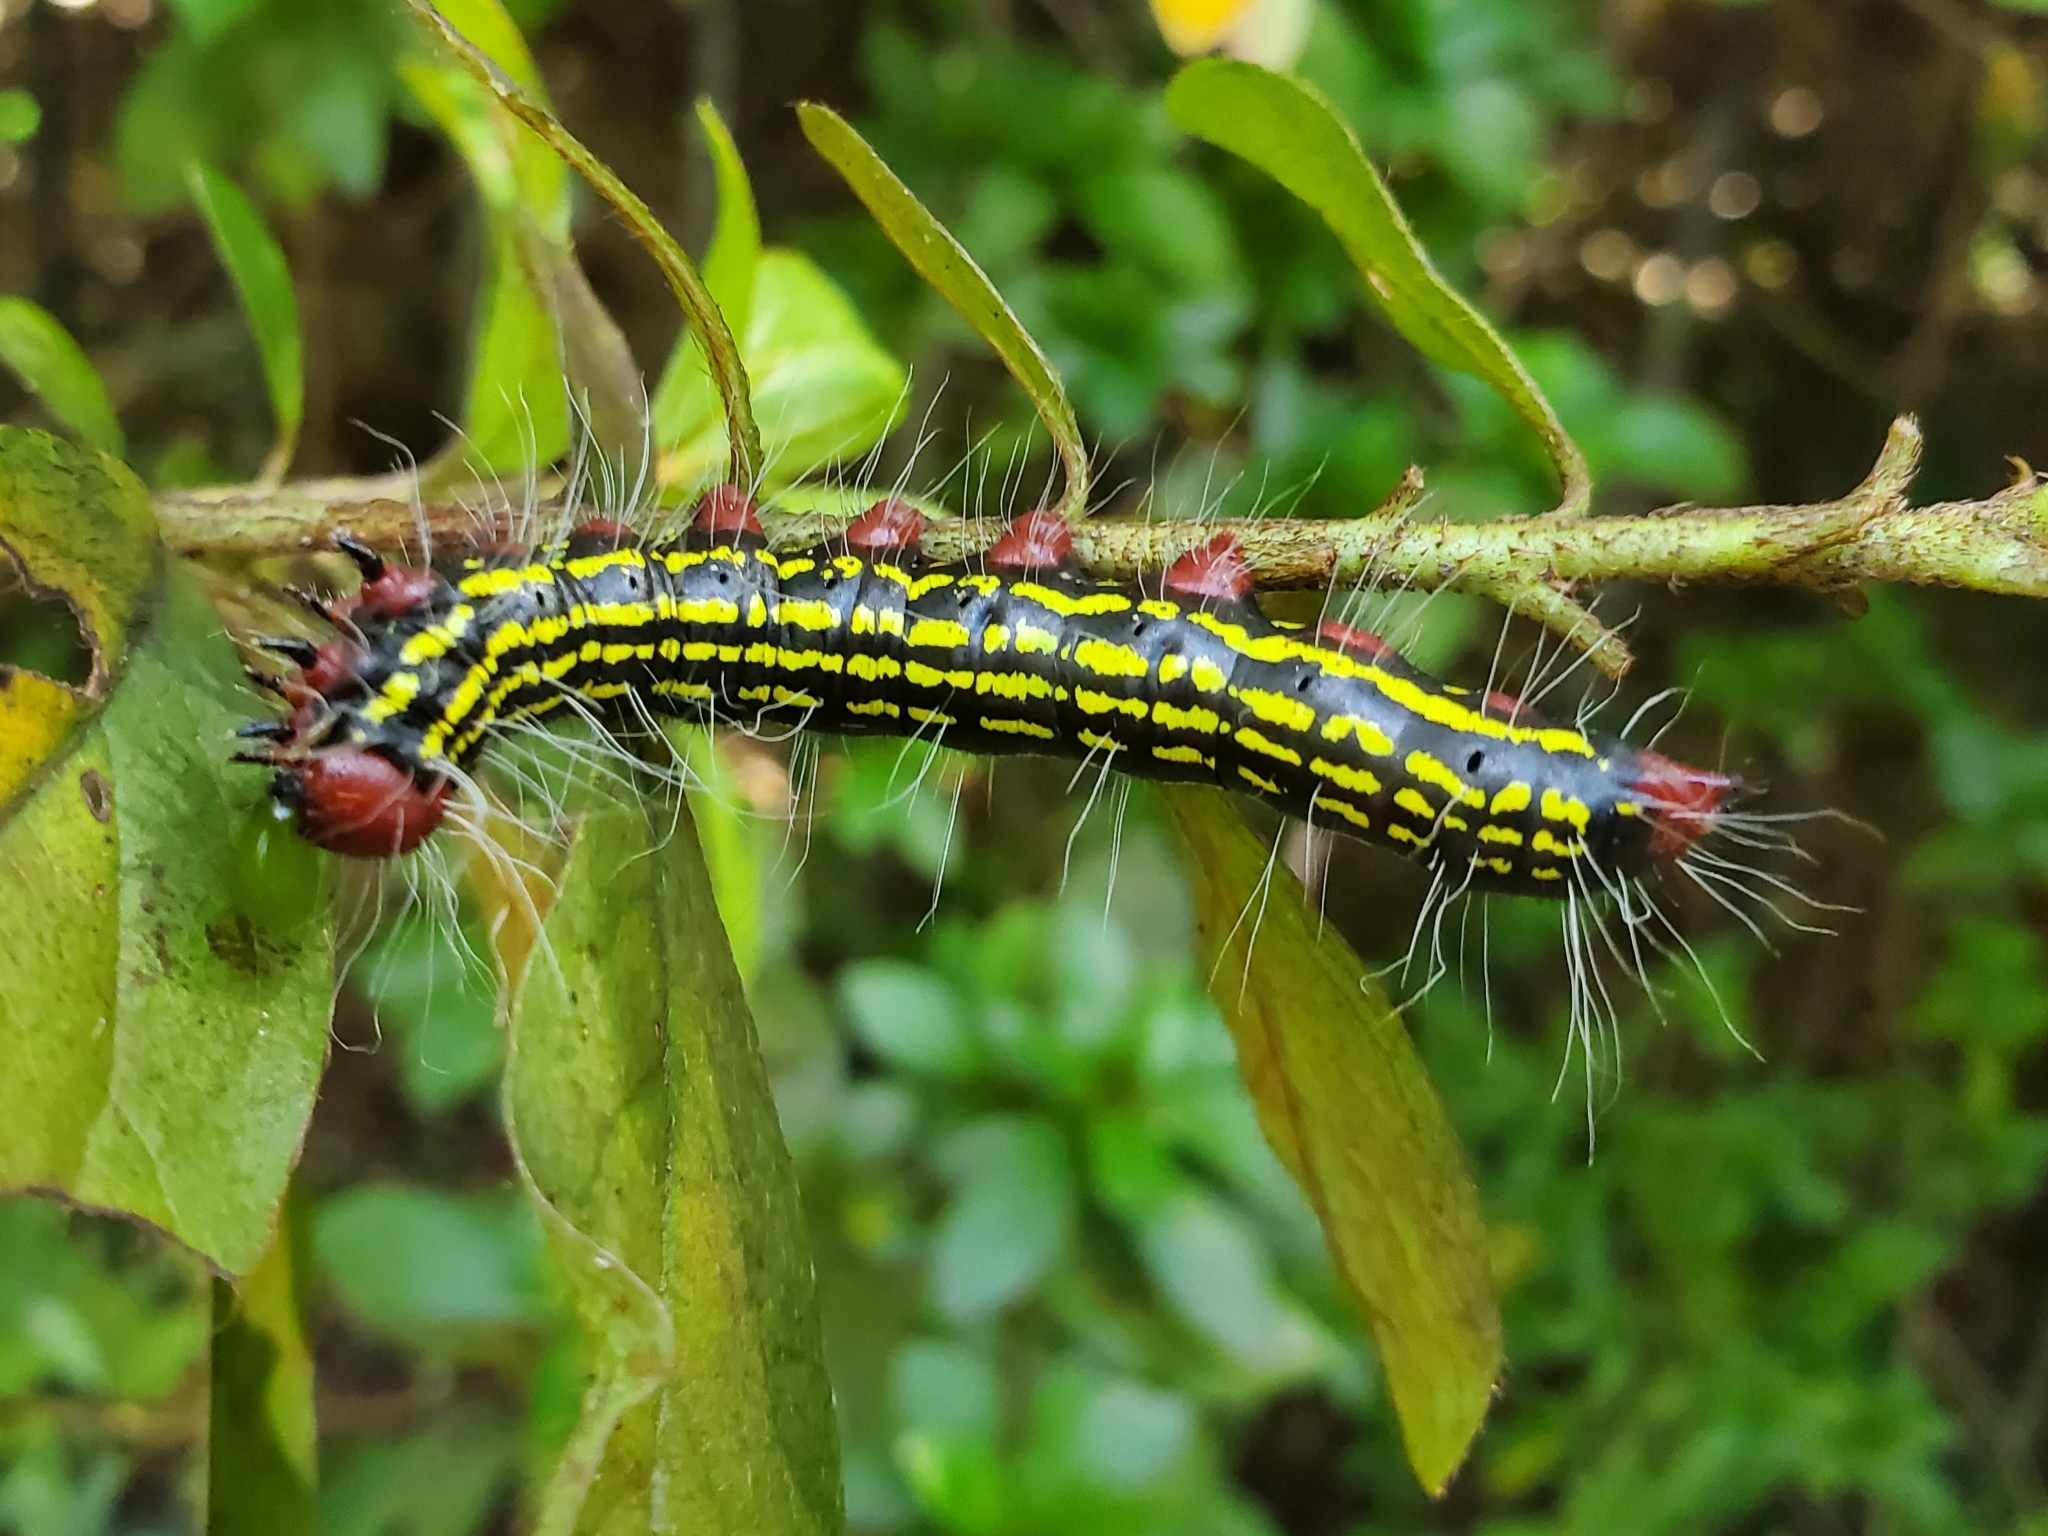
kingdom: Animalia
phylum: Arthropoda
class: Insecta
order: Lepidoptera
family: Notodontidae
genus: Datana
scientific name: Datana major
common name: Azalea caterpillar
